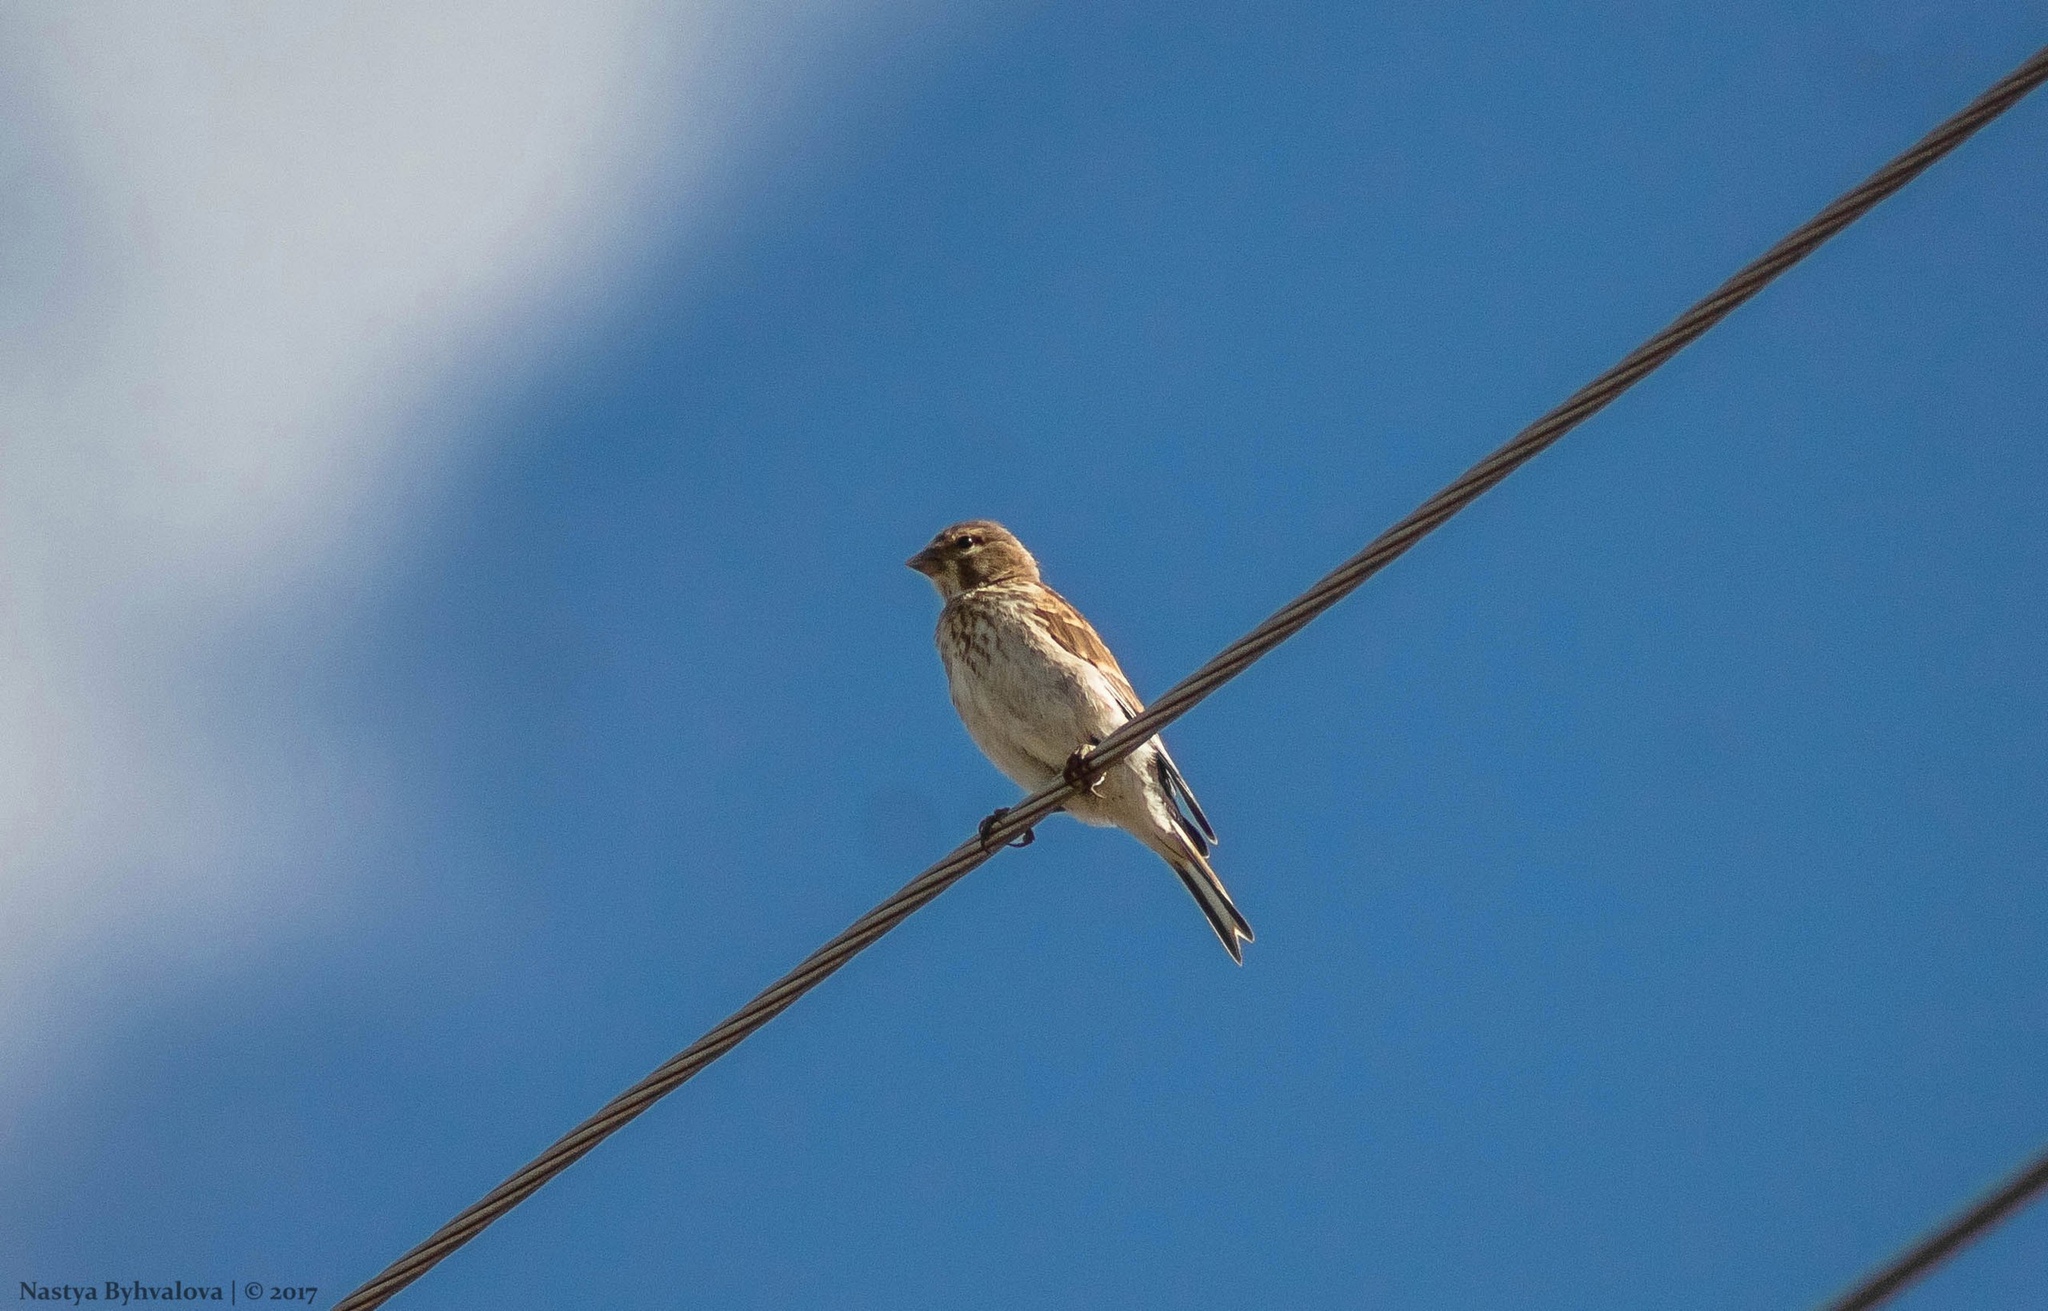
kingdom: Animalia
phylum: Chordata
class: Aves
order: Passeriformes
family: Fringillidae
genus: Linaria
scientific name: Linaria cannabina
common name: Common linnet
